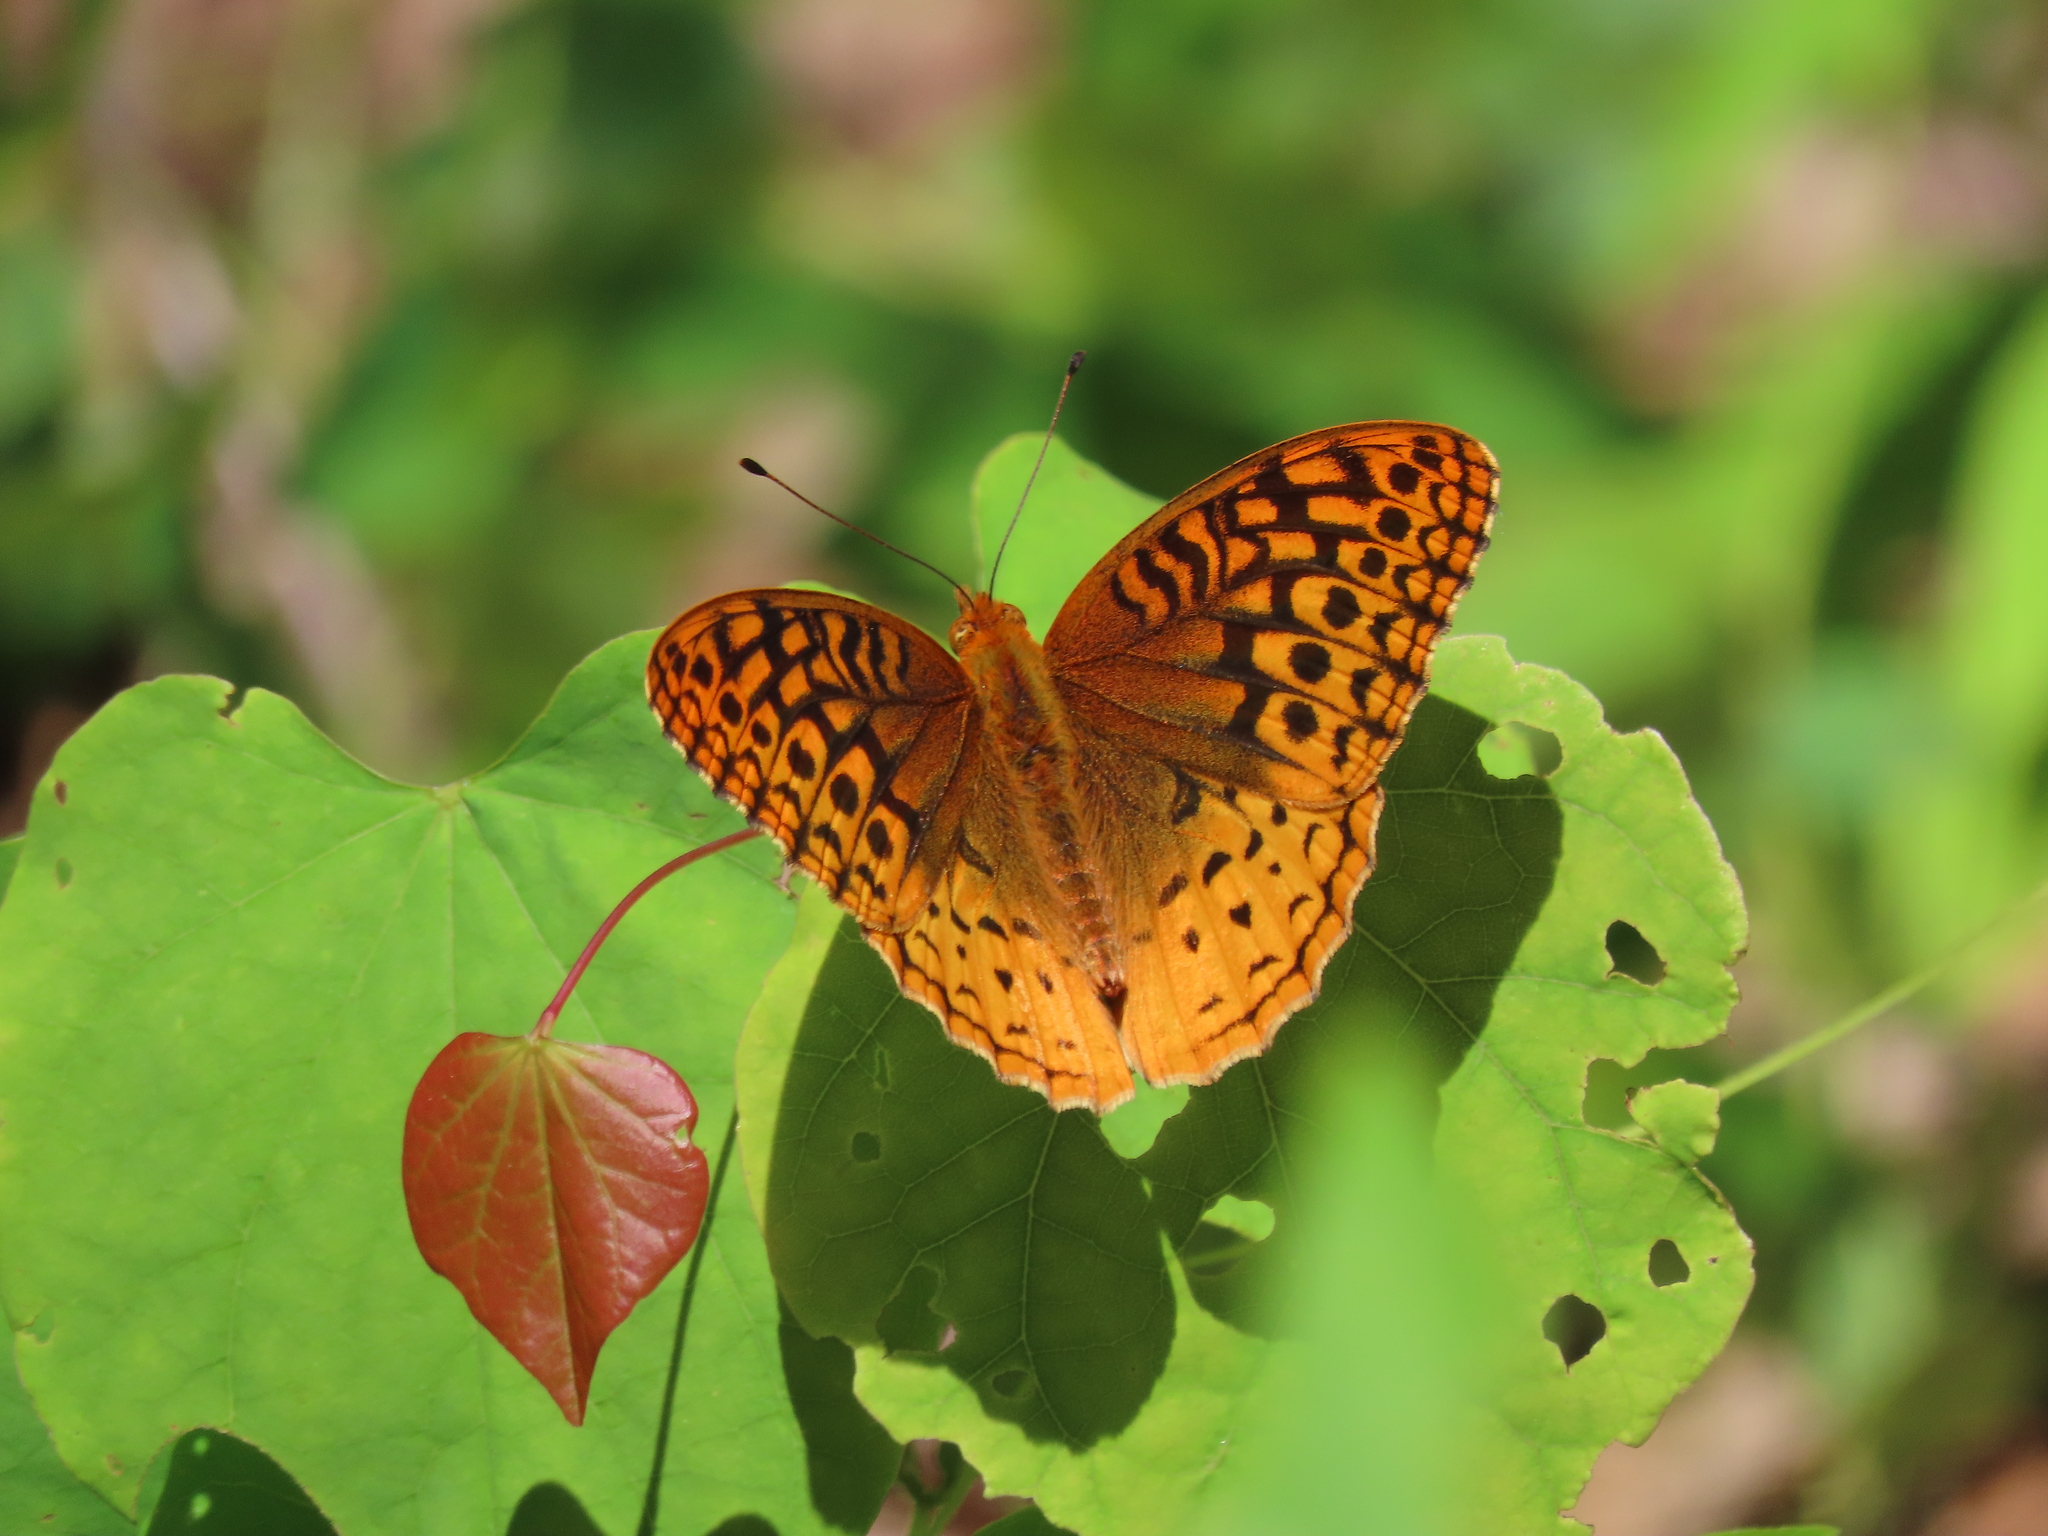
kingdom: Animalia
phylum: Arthropoda
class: Insecta
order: Lepidoptera
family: Nymphalidae
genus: Speyeria
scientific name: Speyeria cybele
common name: Great spangled fritillary
